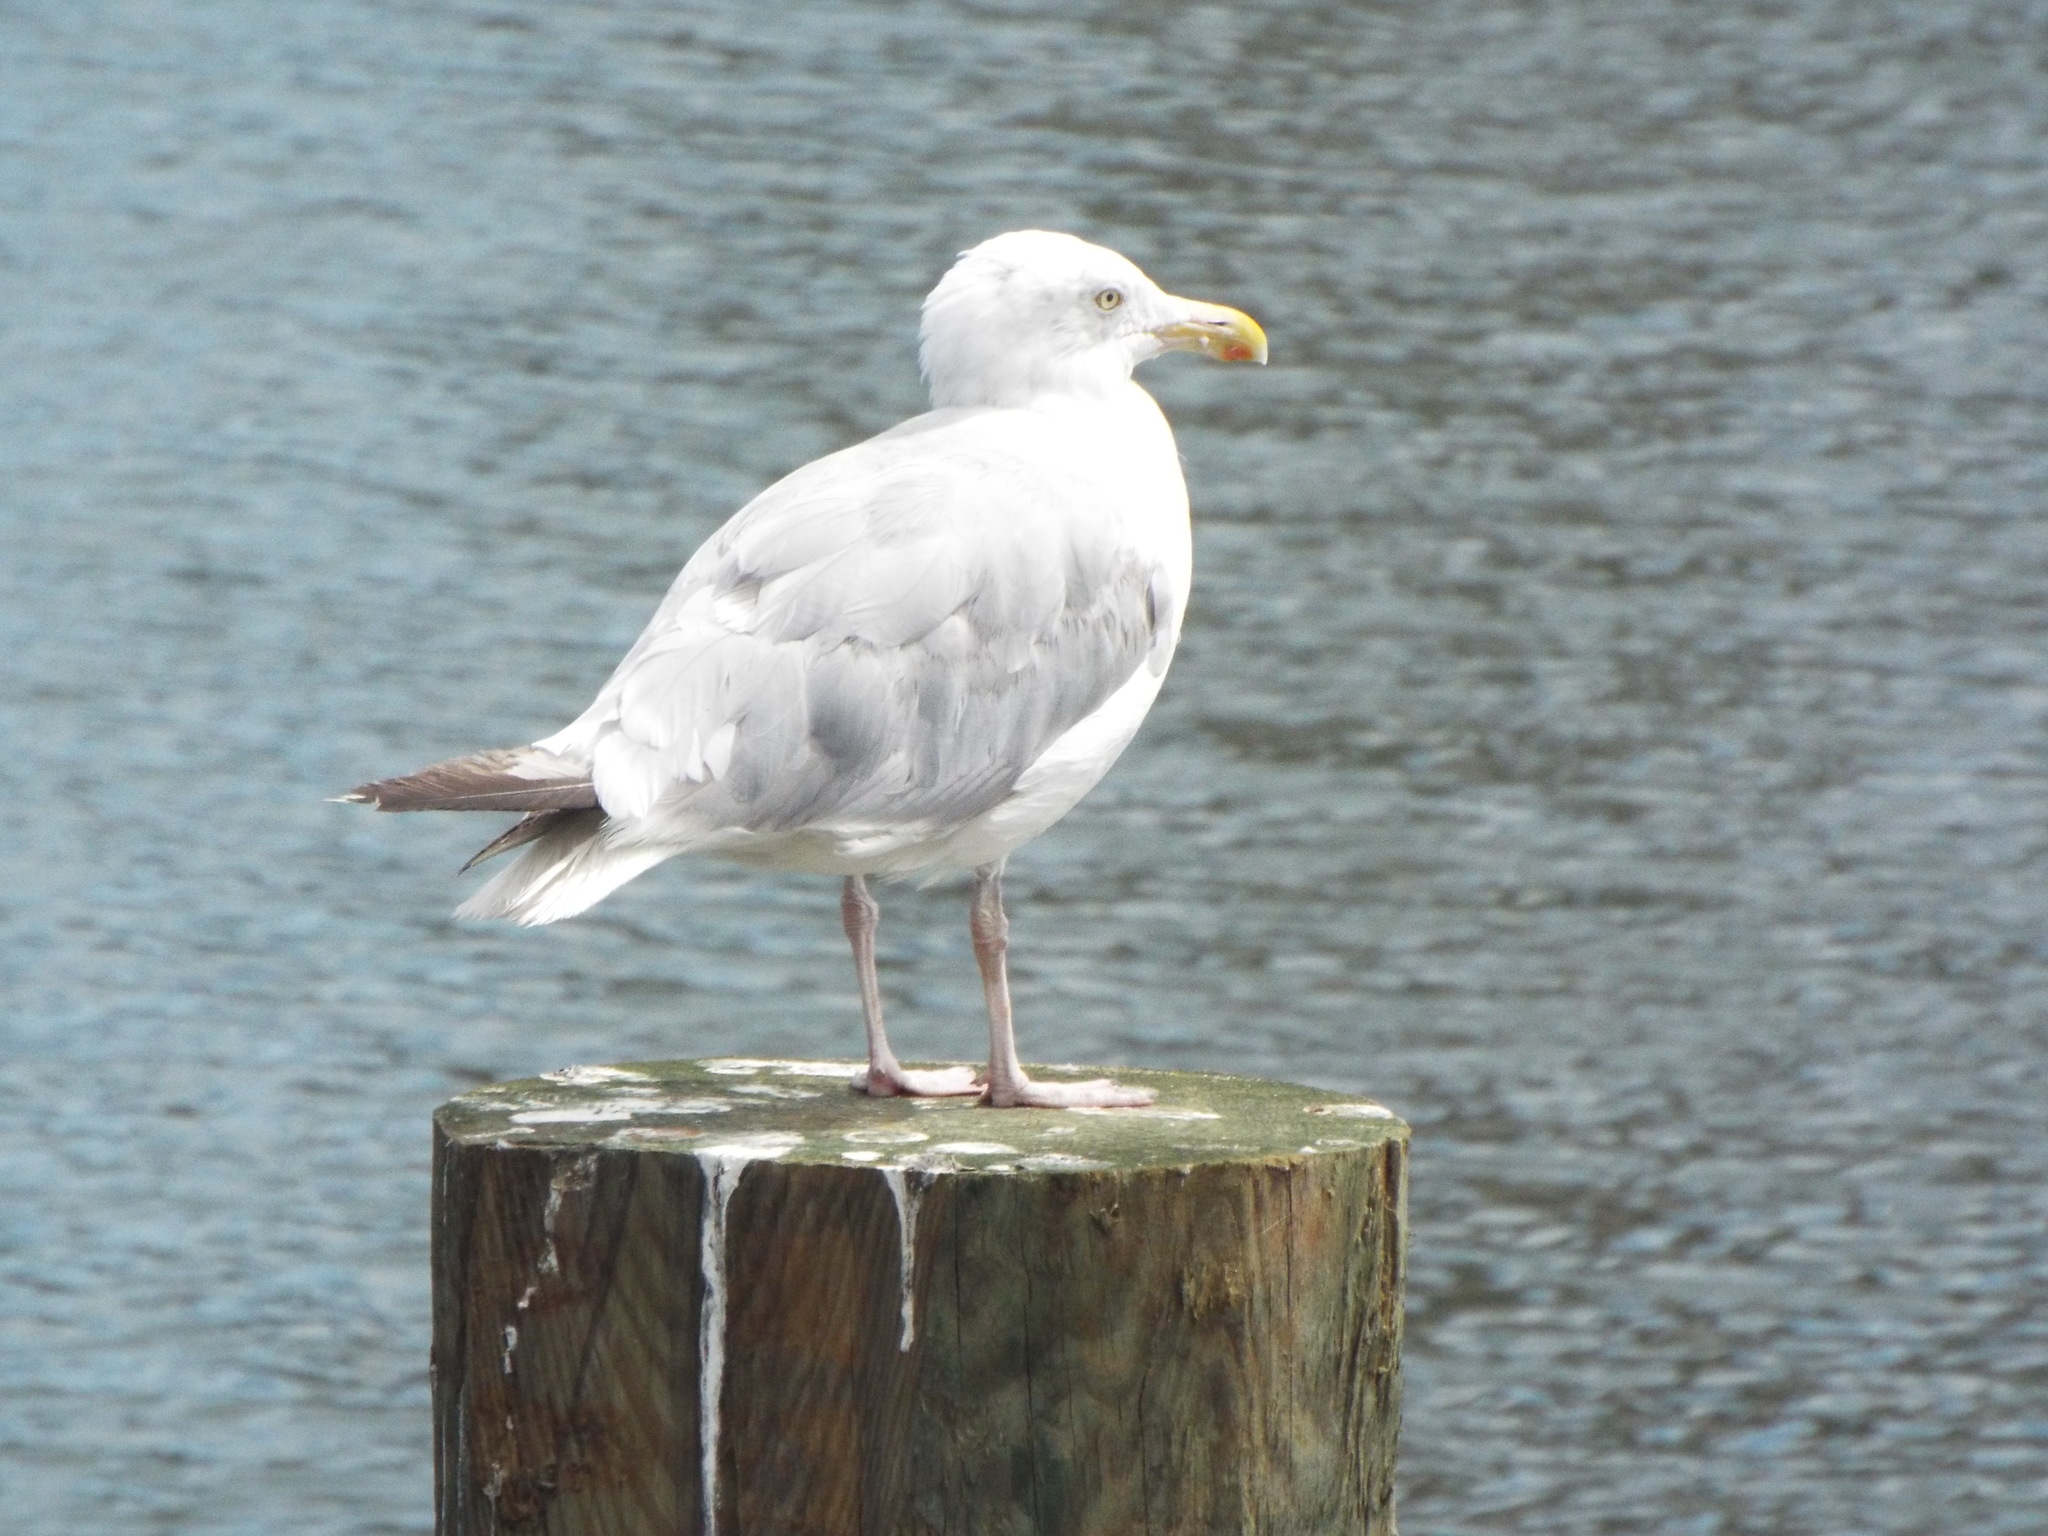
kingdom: Animalia
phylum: Chordata
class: Aves
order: Charadriiformes
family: Laridae
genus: Larus
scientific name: Larus argentatus
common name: Herring gull
